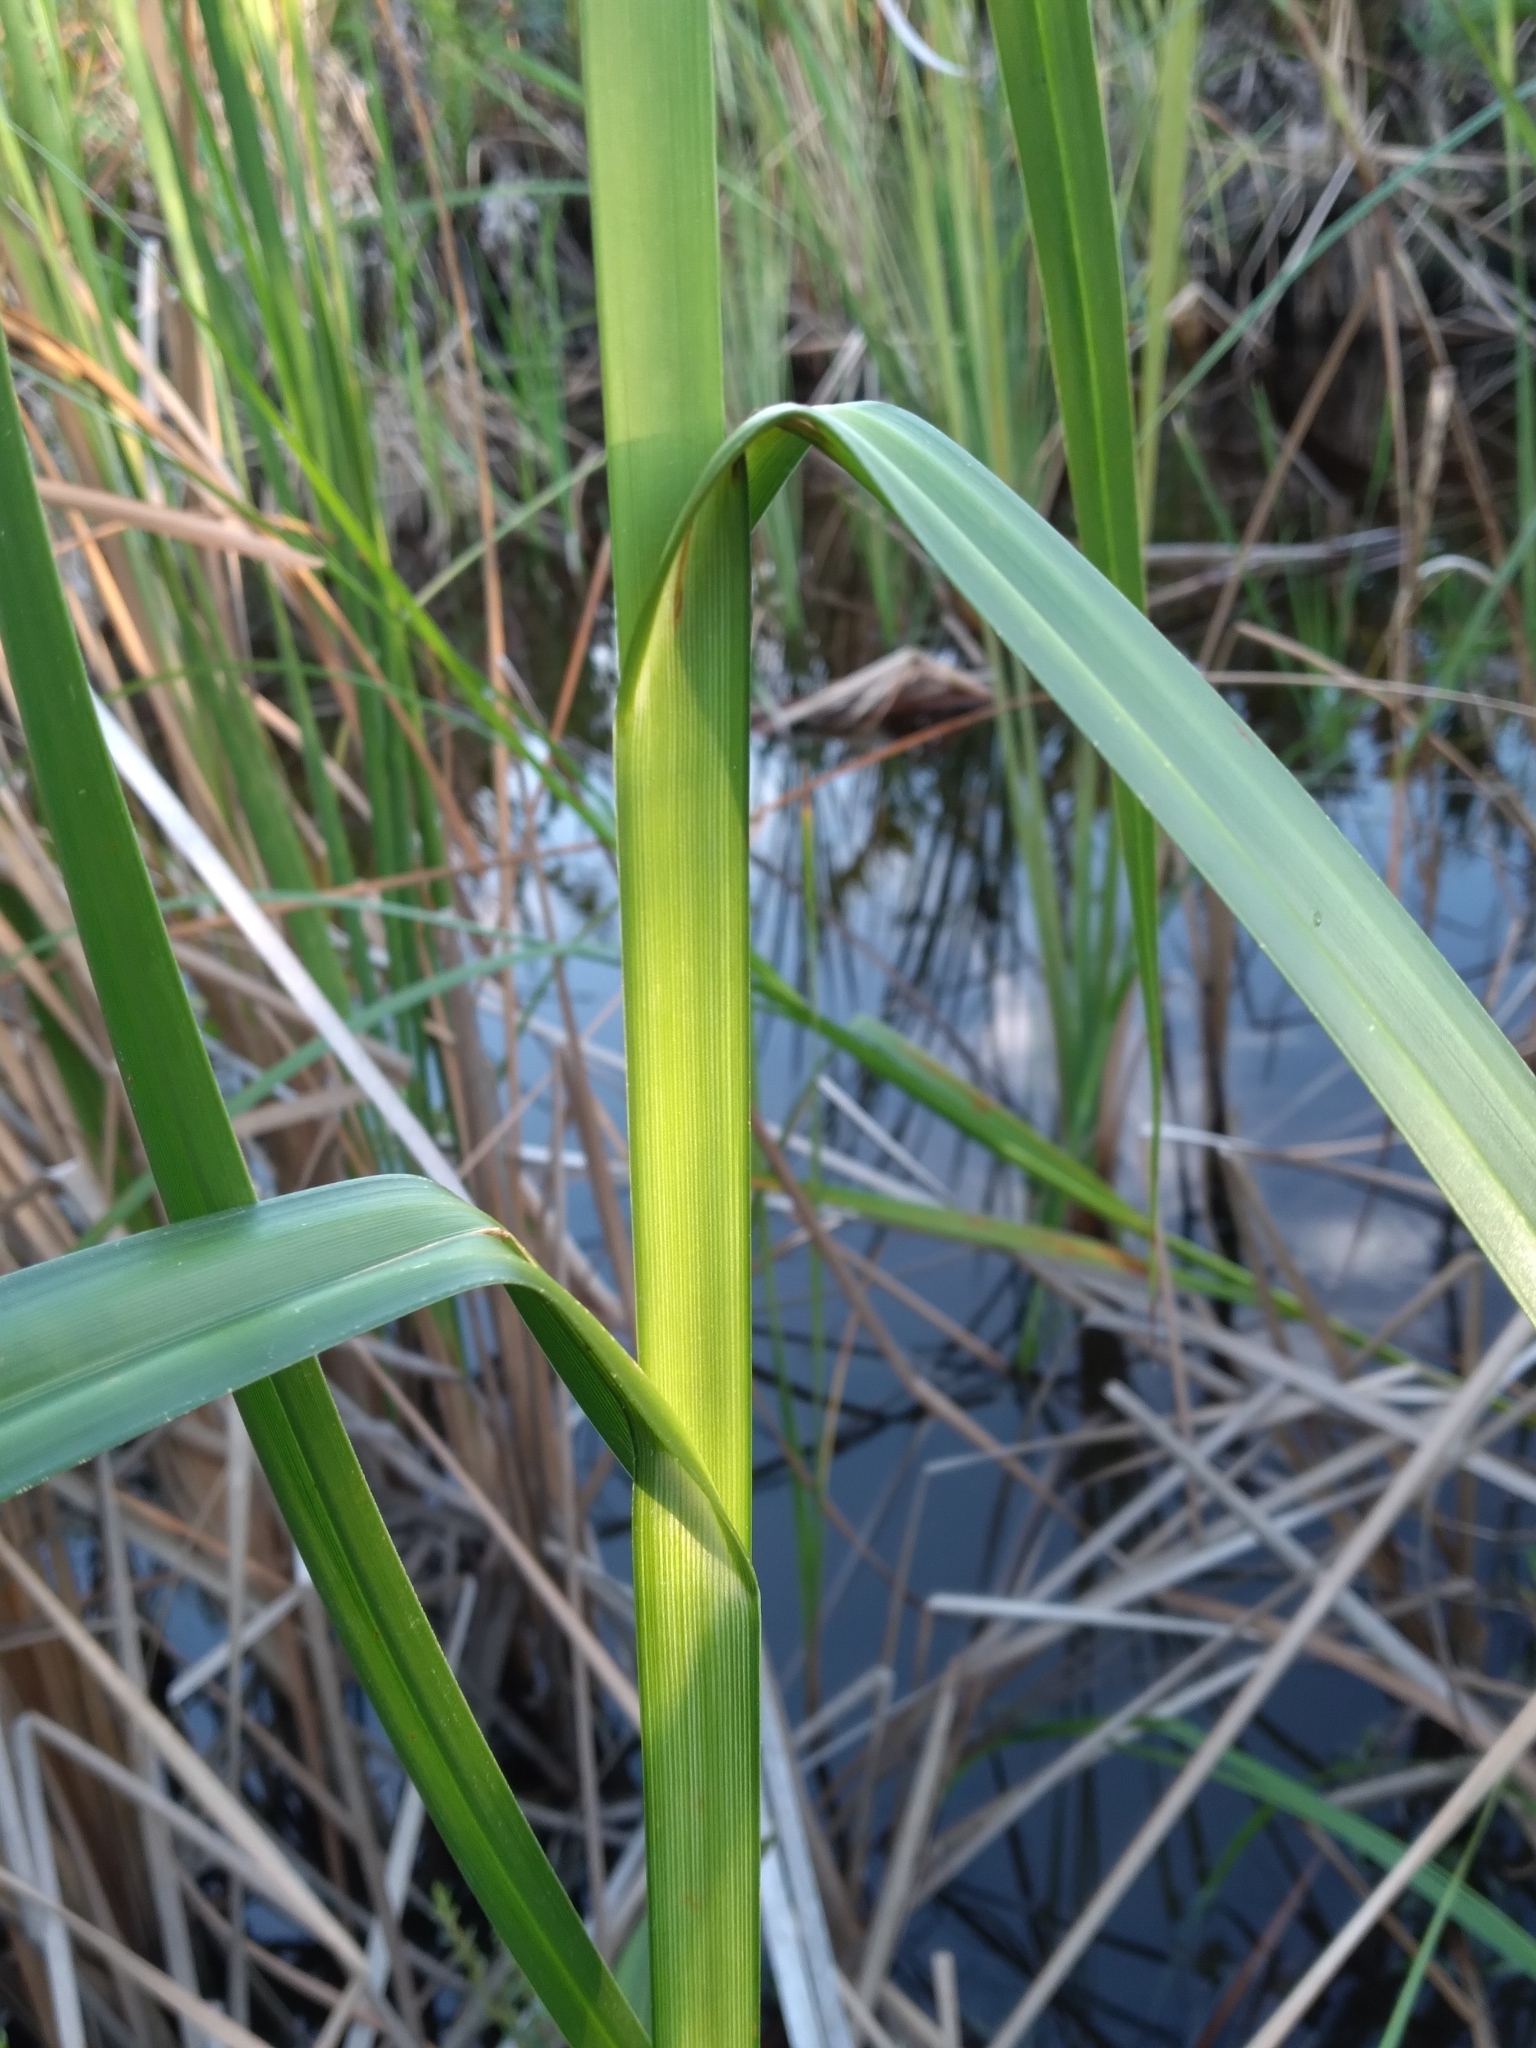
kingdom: Plantae
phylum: Tracheophyta
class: Liliopsida
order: Poales
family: Cyperaceae
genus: Bolboschoenus
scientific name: Bolboschoenus robustus
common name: Seacoast bulrush
